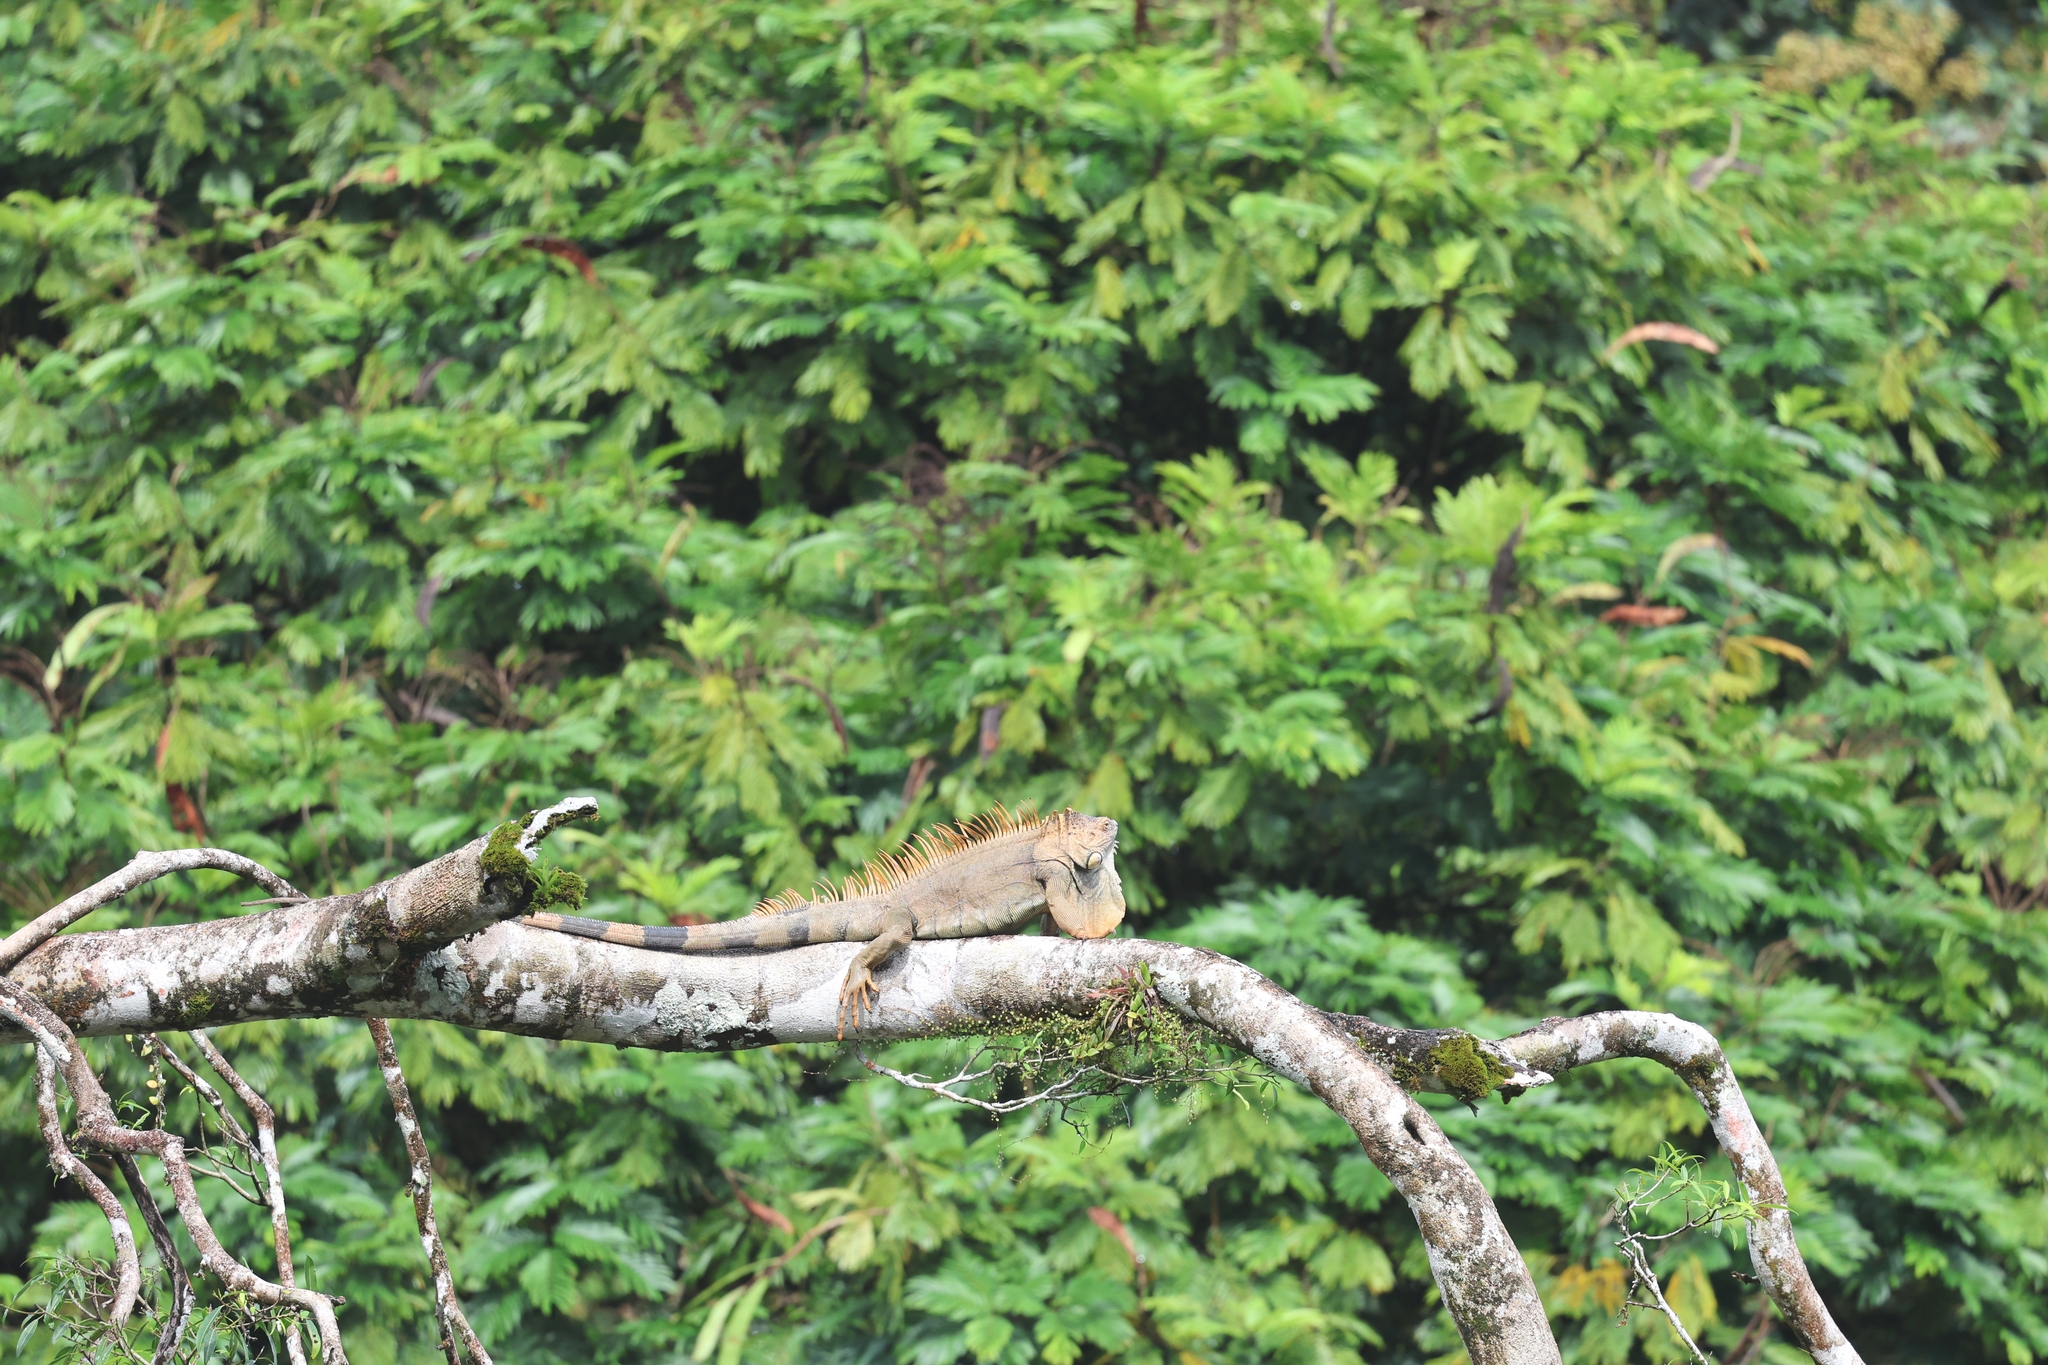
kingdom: Animalia
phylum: Chordata
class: Squamata
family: Iguanidae
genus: Iguana
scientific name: Iguana iguana
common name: Green iguana
